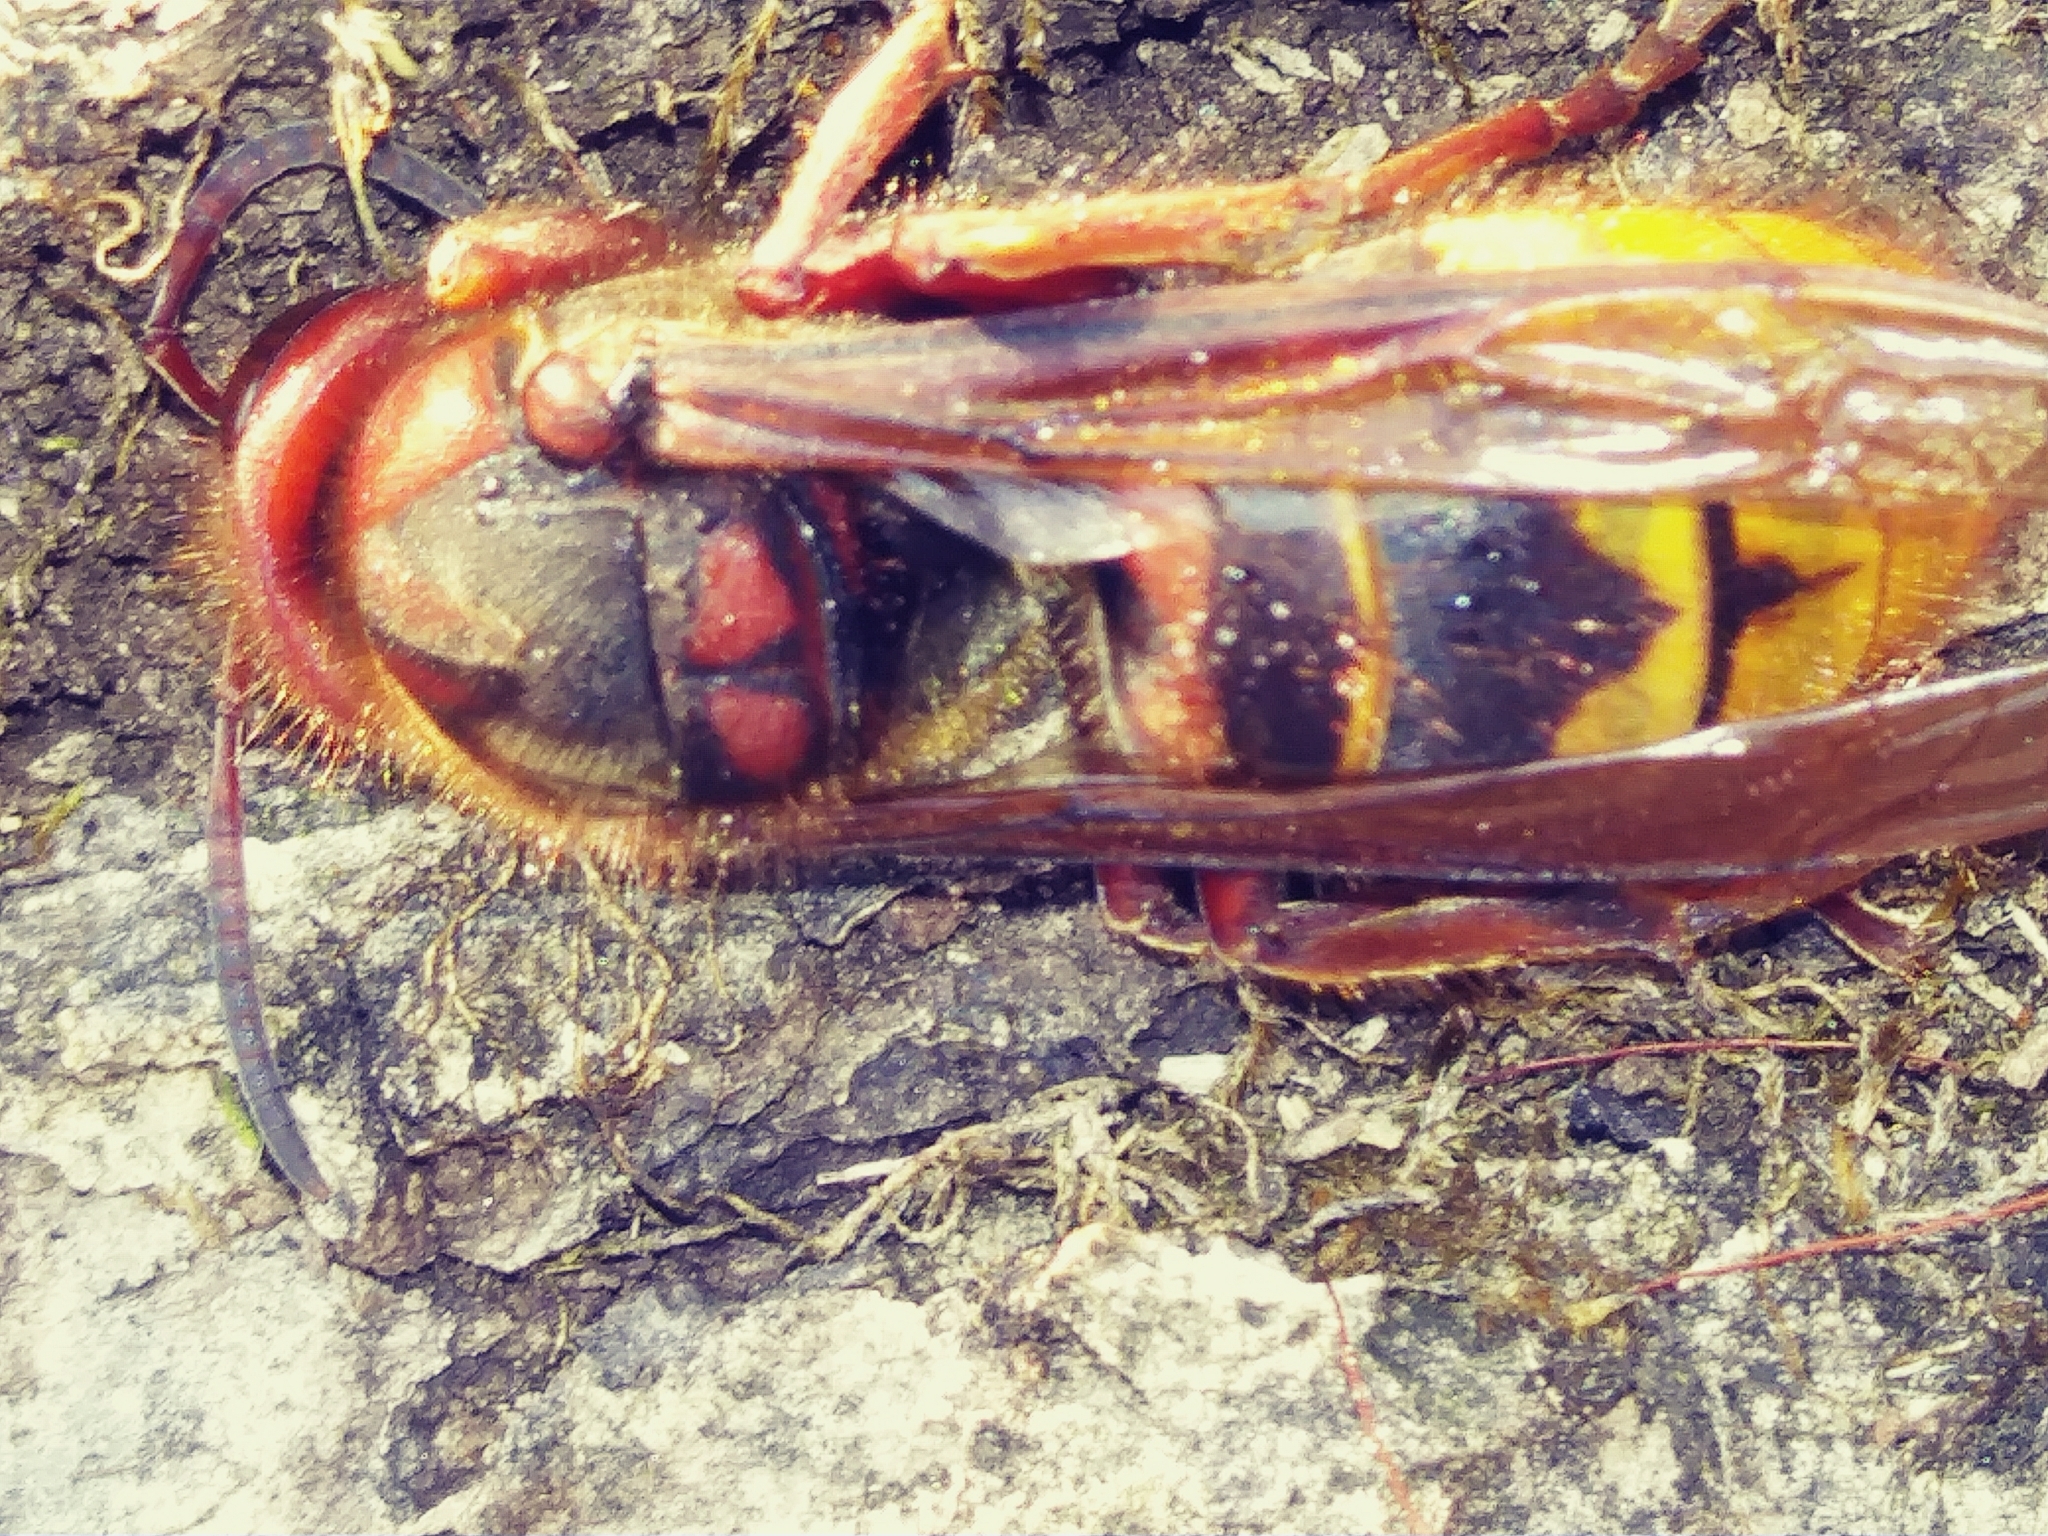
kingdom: Animalia
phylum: Arthropoda
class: Insecta
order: Hymenoptera
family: Vespidae
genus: Vespa
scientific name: Vespa crabro
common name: Hornet
